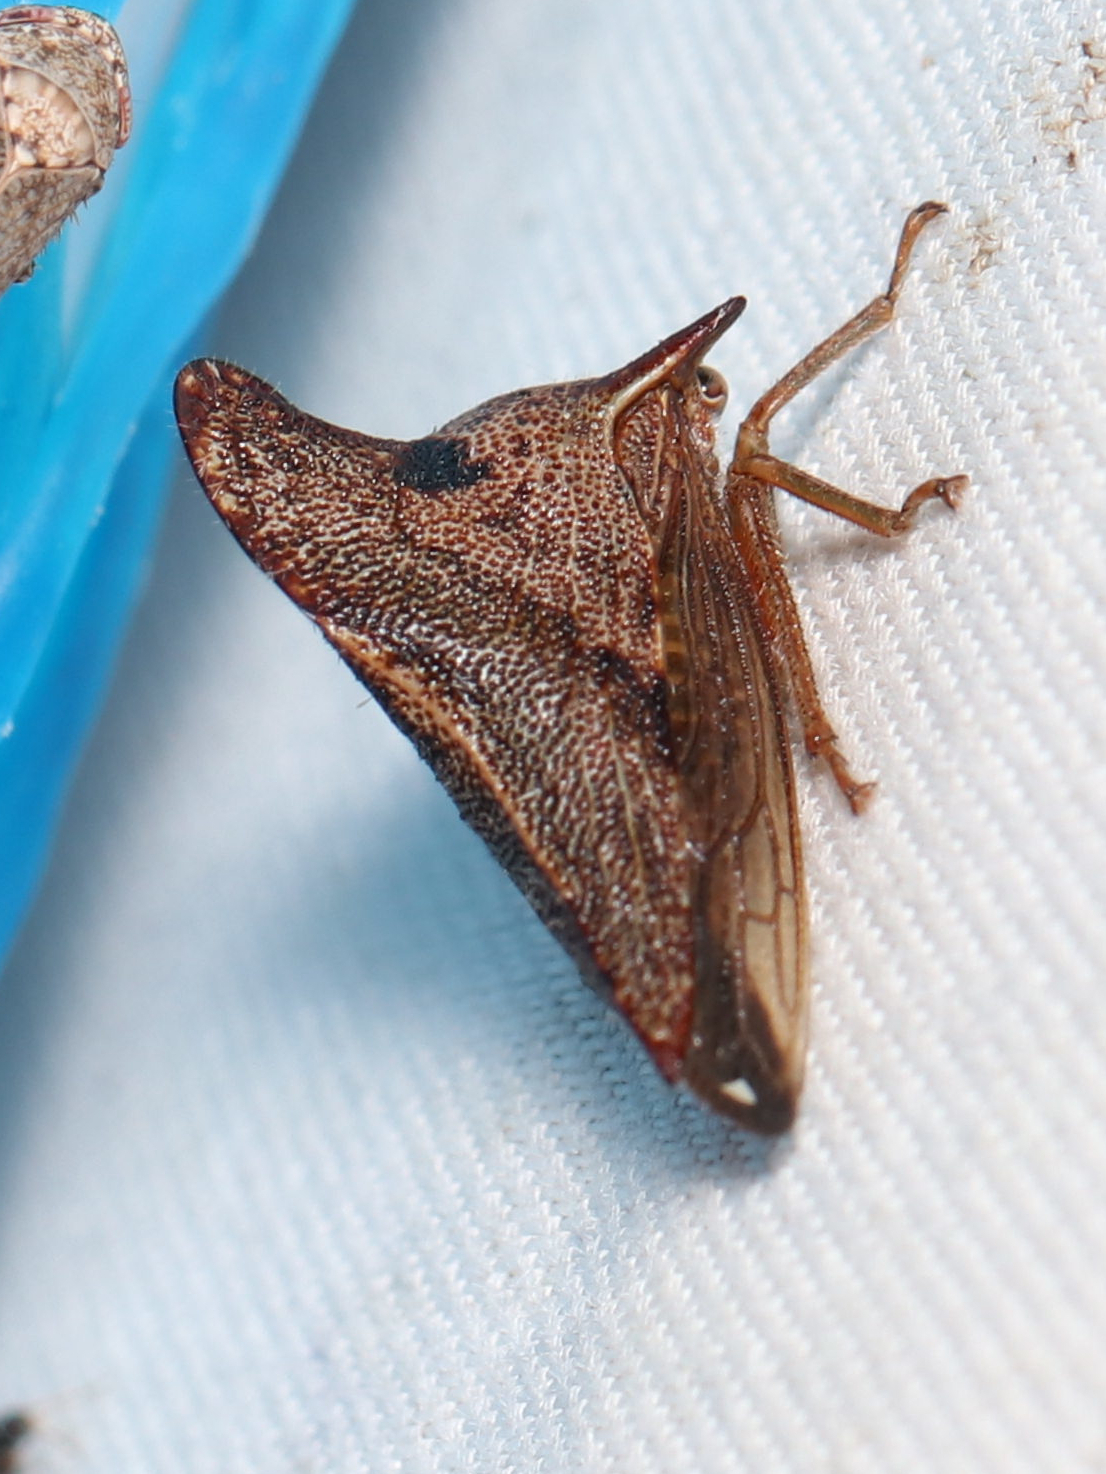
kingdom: Animalia
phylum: Arthropoda
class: Insecta
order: Hemiptera
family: Membracidae
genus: Telamona
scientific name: Telamona projecta
